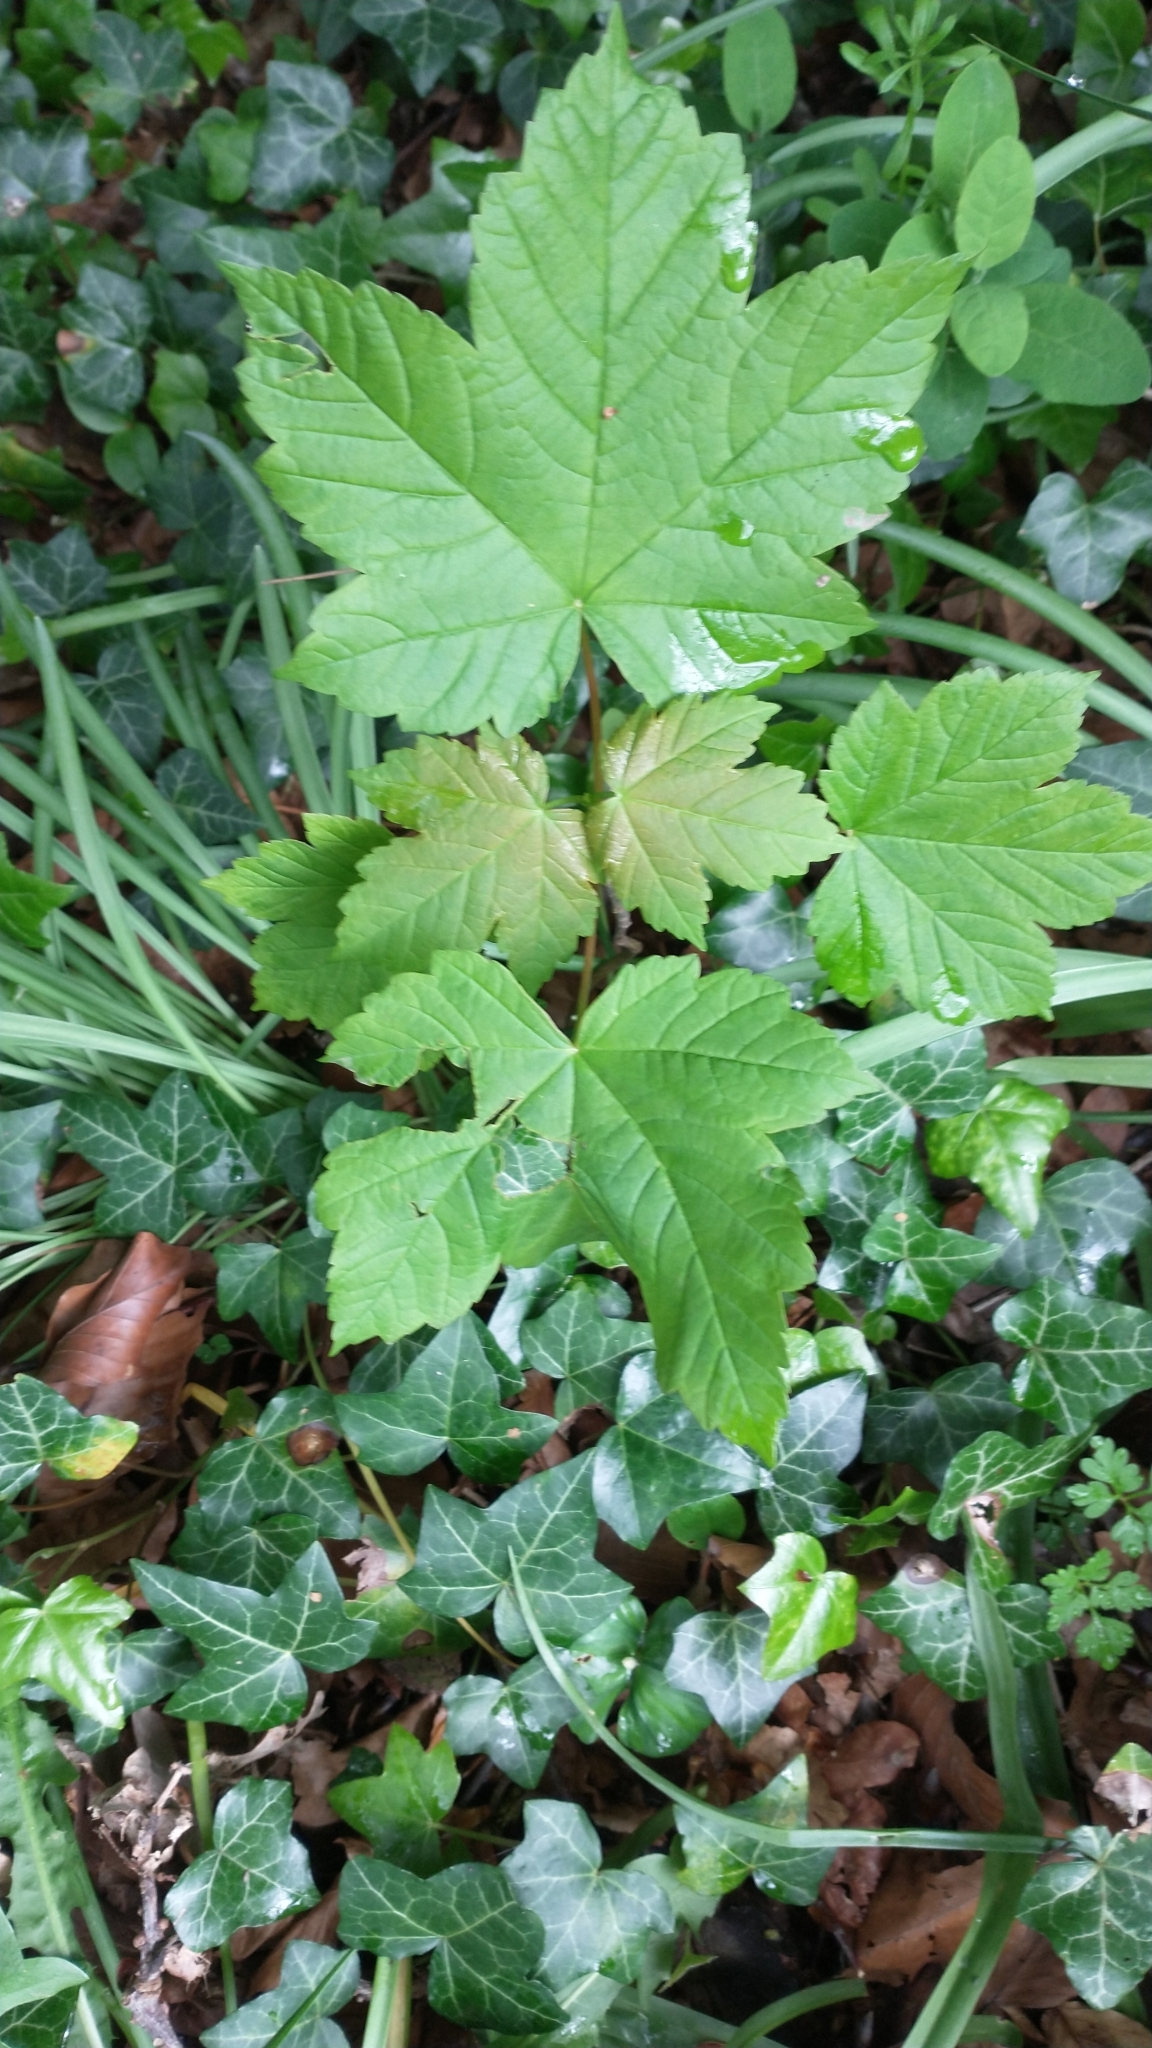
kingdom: Plantae
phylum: Tracheophyta
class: Magnoliopsida
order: Sapindales
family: Sapindaceae
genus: Acer
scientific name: Acer pseudoplatanus
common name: Sycamore
